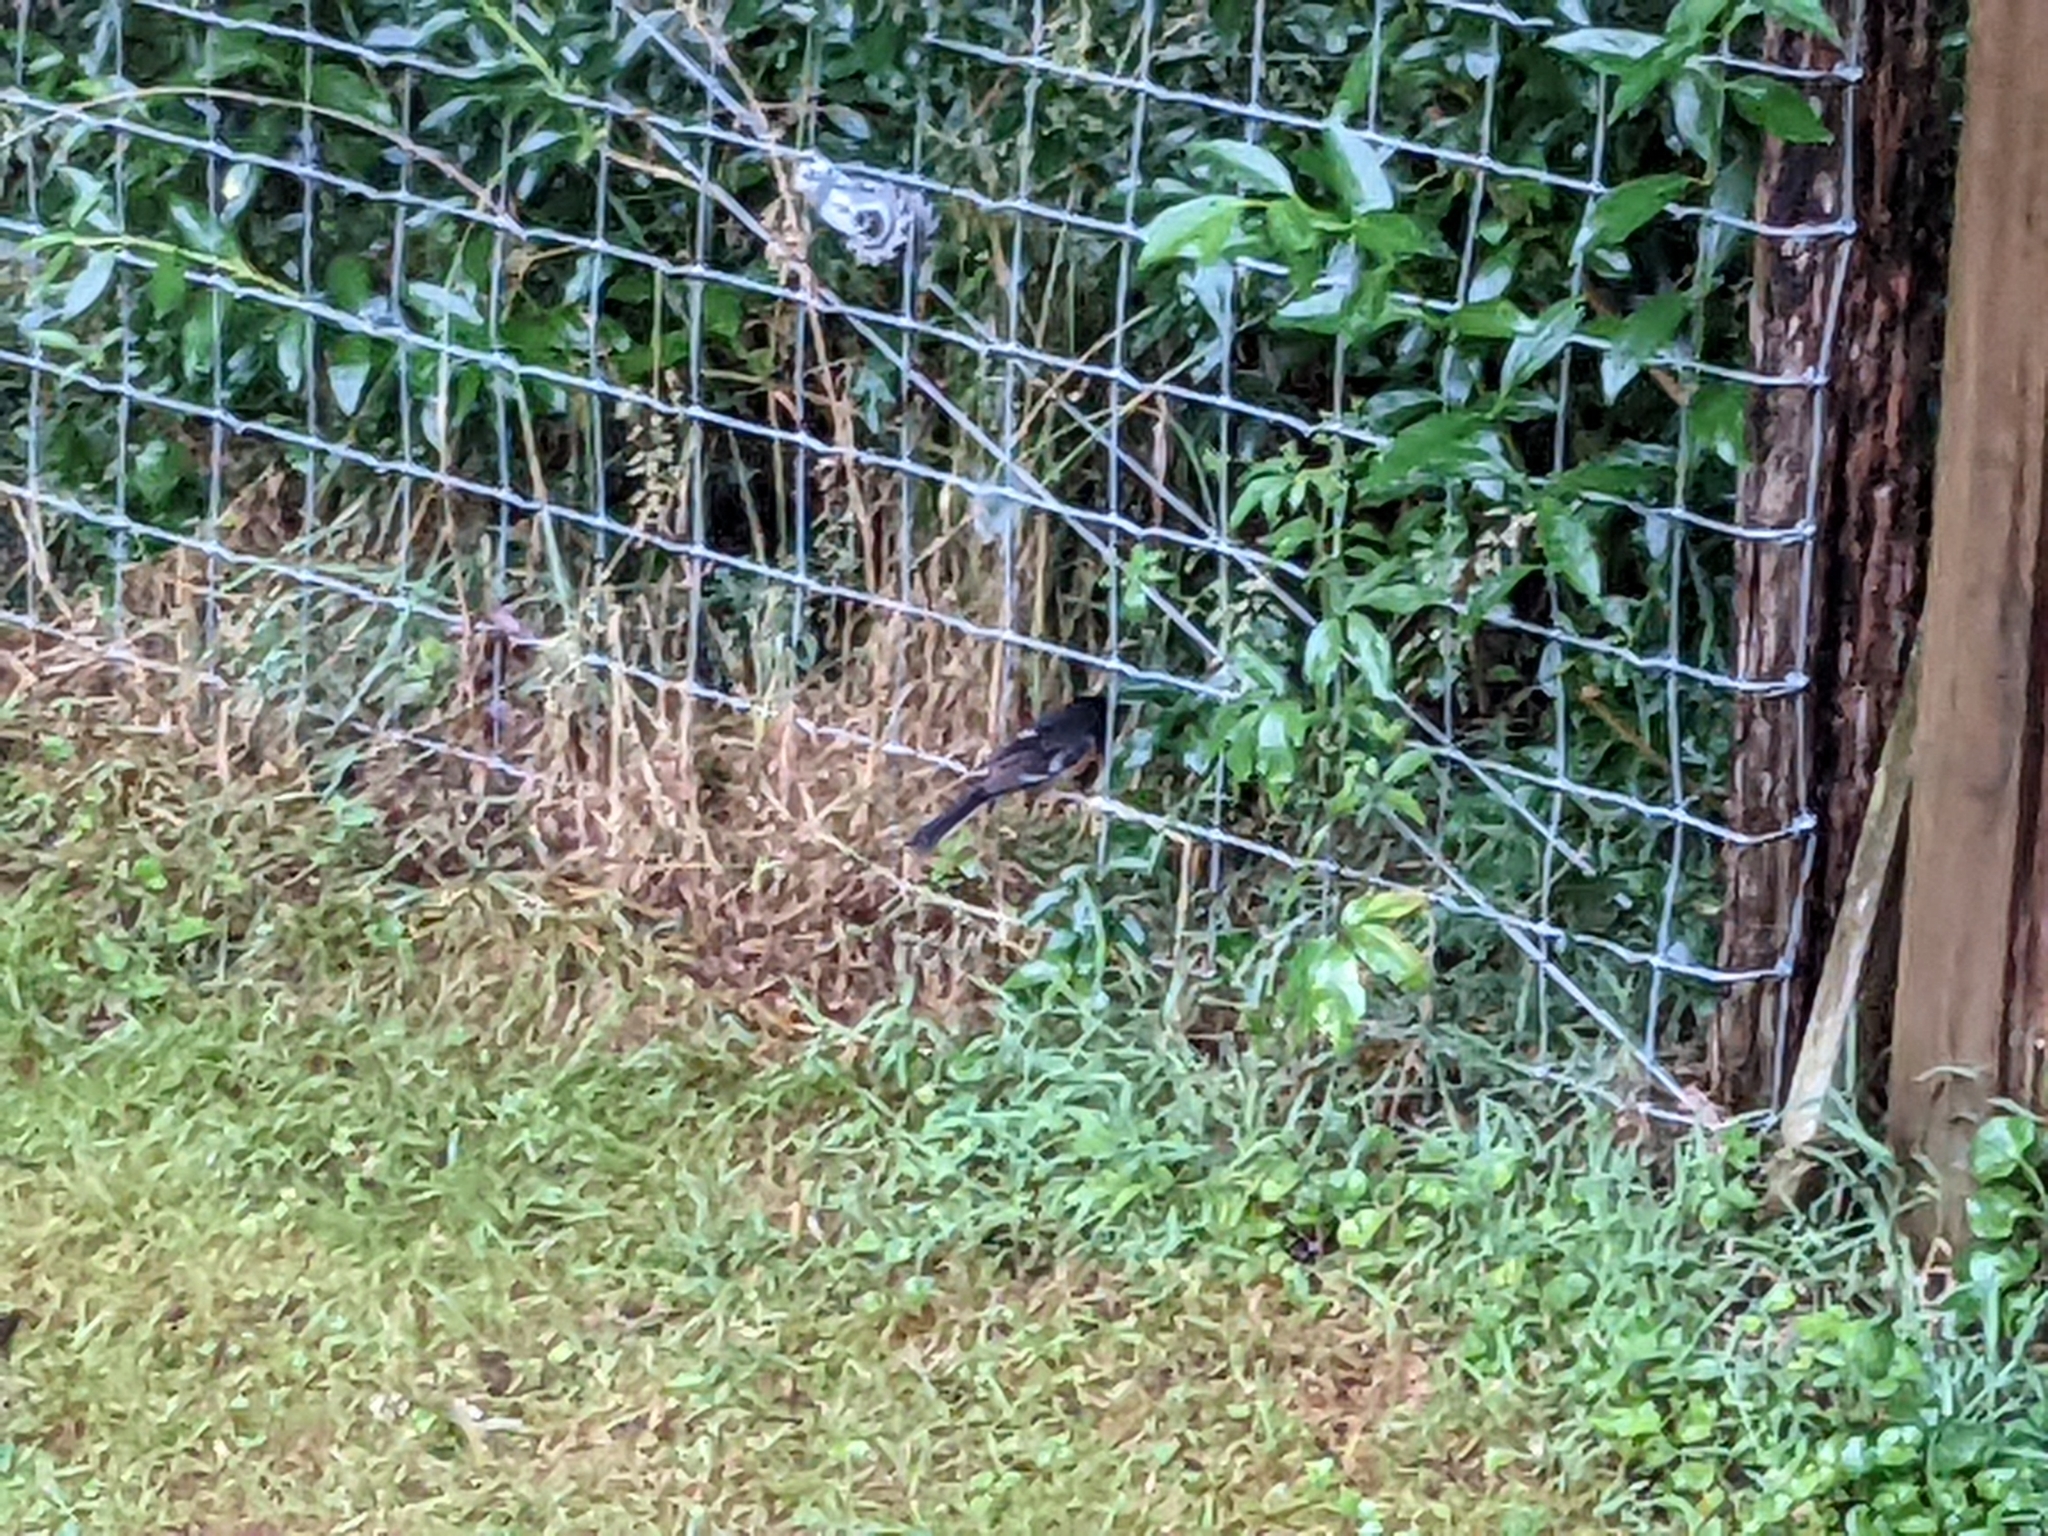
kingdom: Animalia
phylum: Chordata
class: Aves
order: Passeriformes
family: Passerellidae
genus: Pipilo
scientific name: Pipilo erythrophthalmus
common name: Eastern towhee
